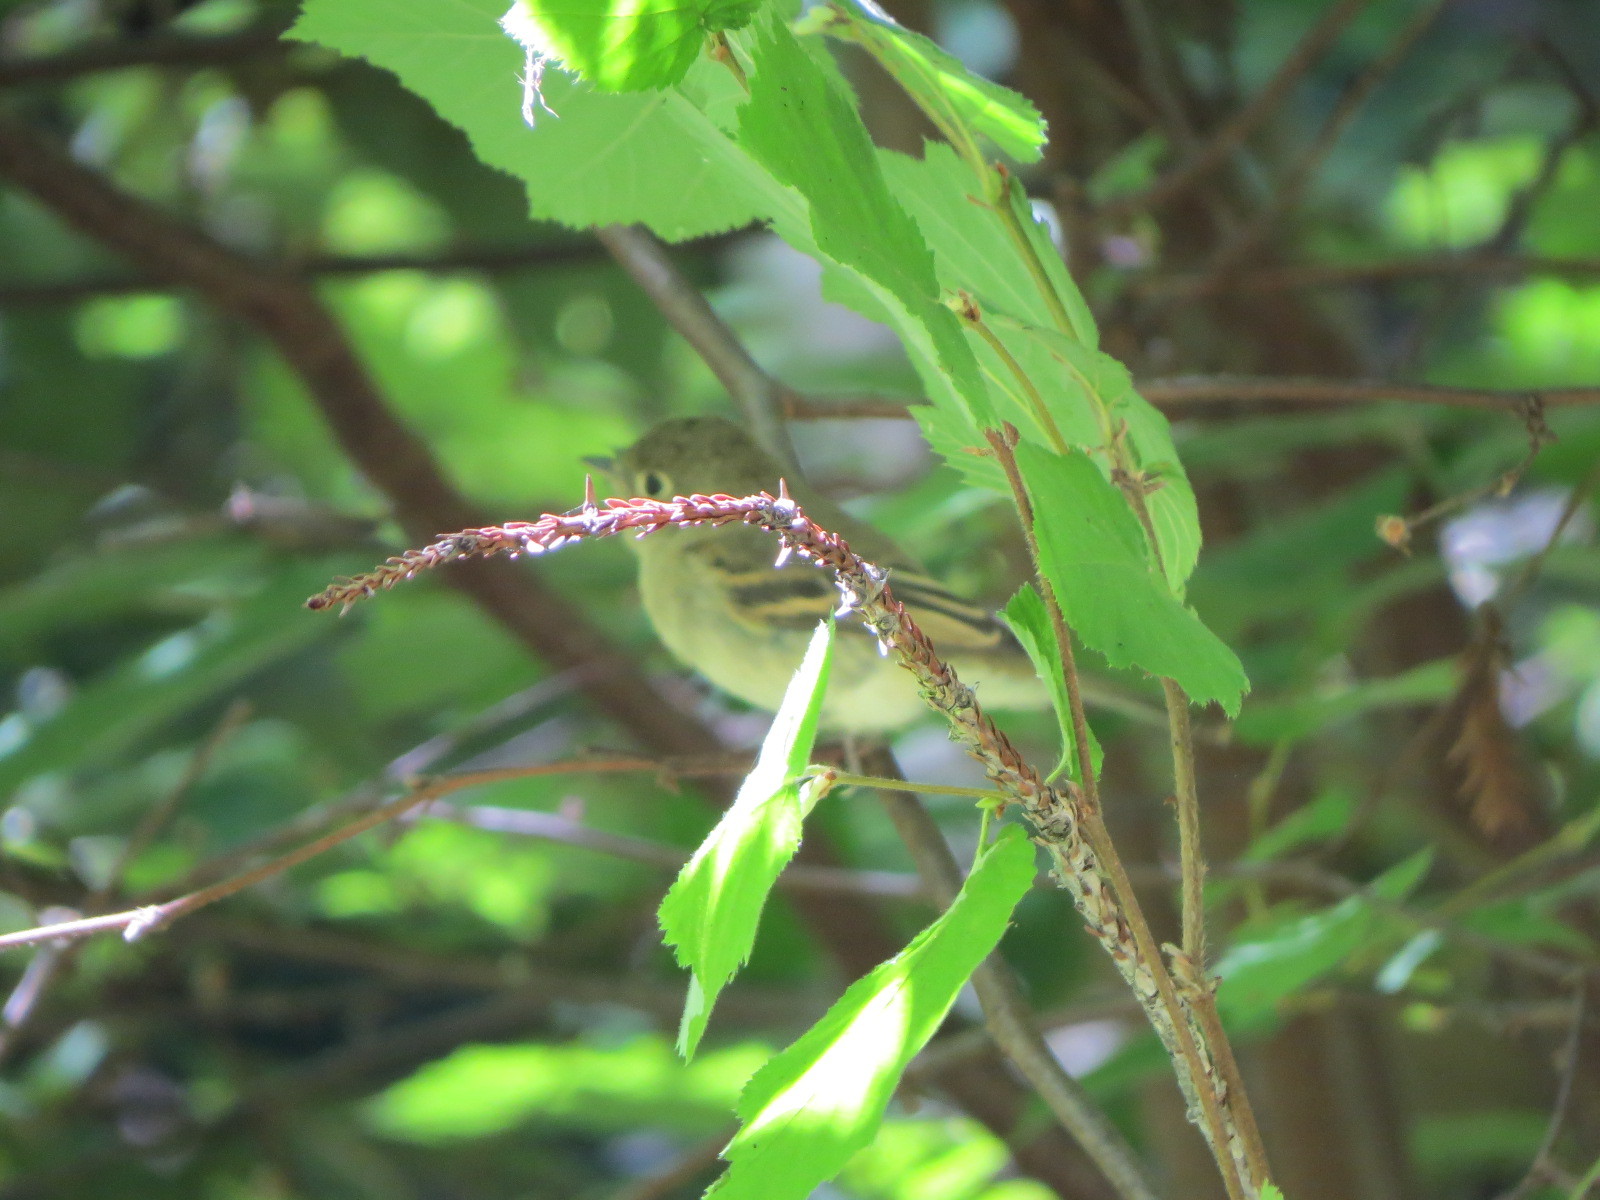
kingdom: Animalia
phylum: Chordata
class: Aves
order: Passeriformes
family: Tyrannidae
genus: Empidonax
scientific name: Empidonax difficilis
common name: Pacific-slope flycatcher
